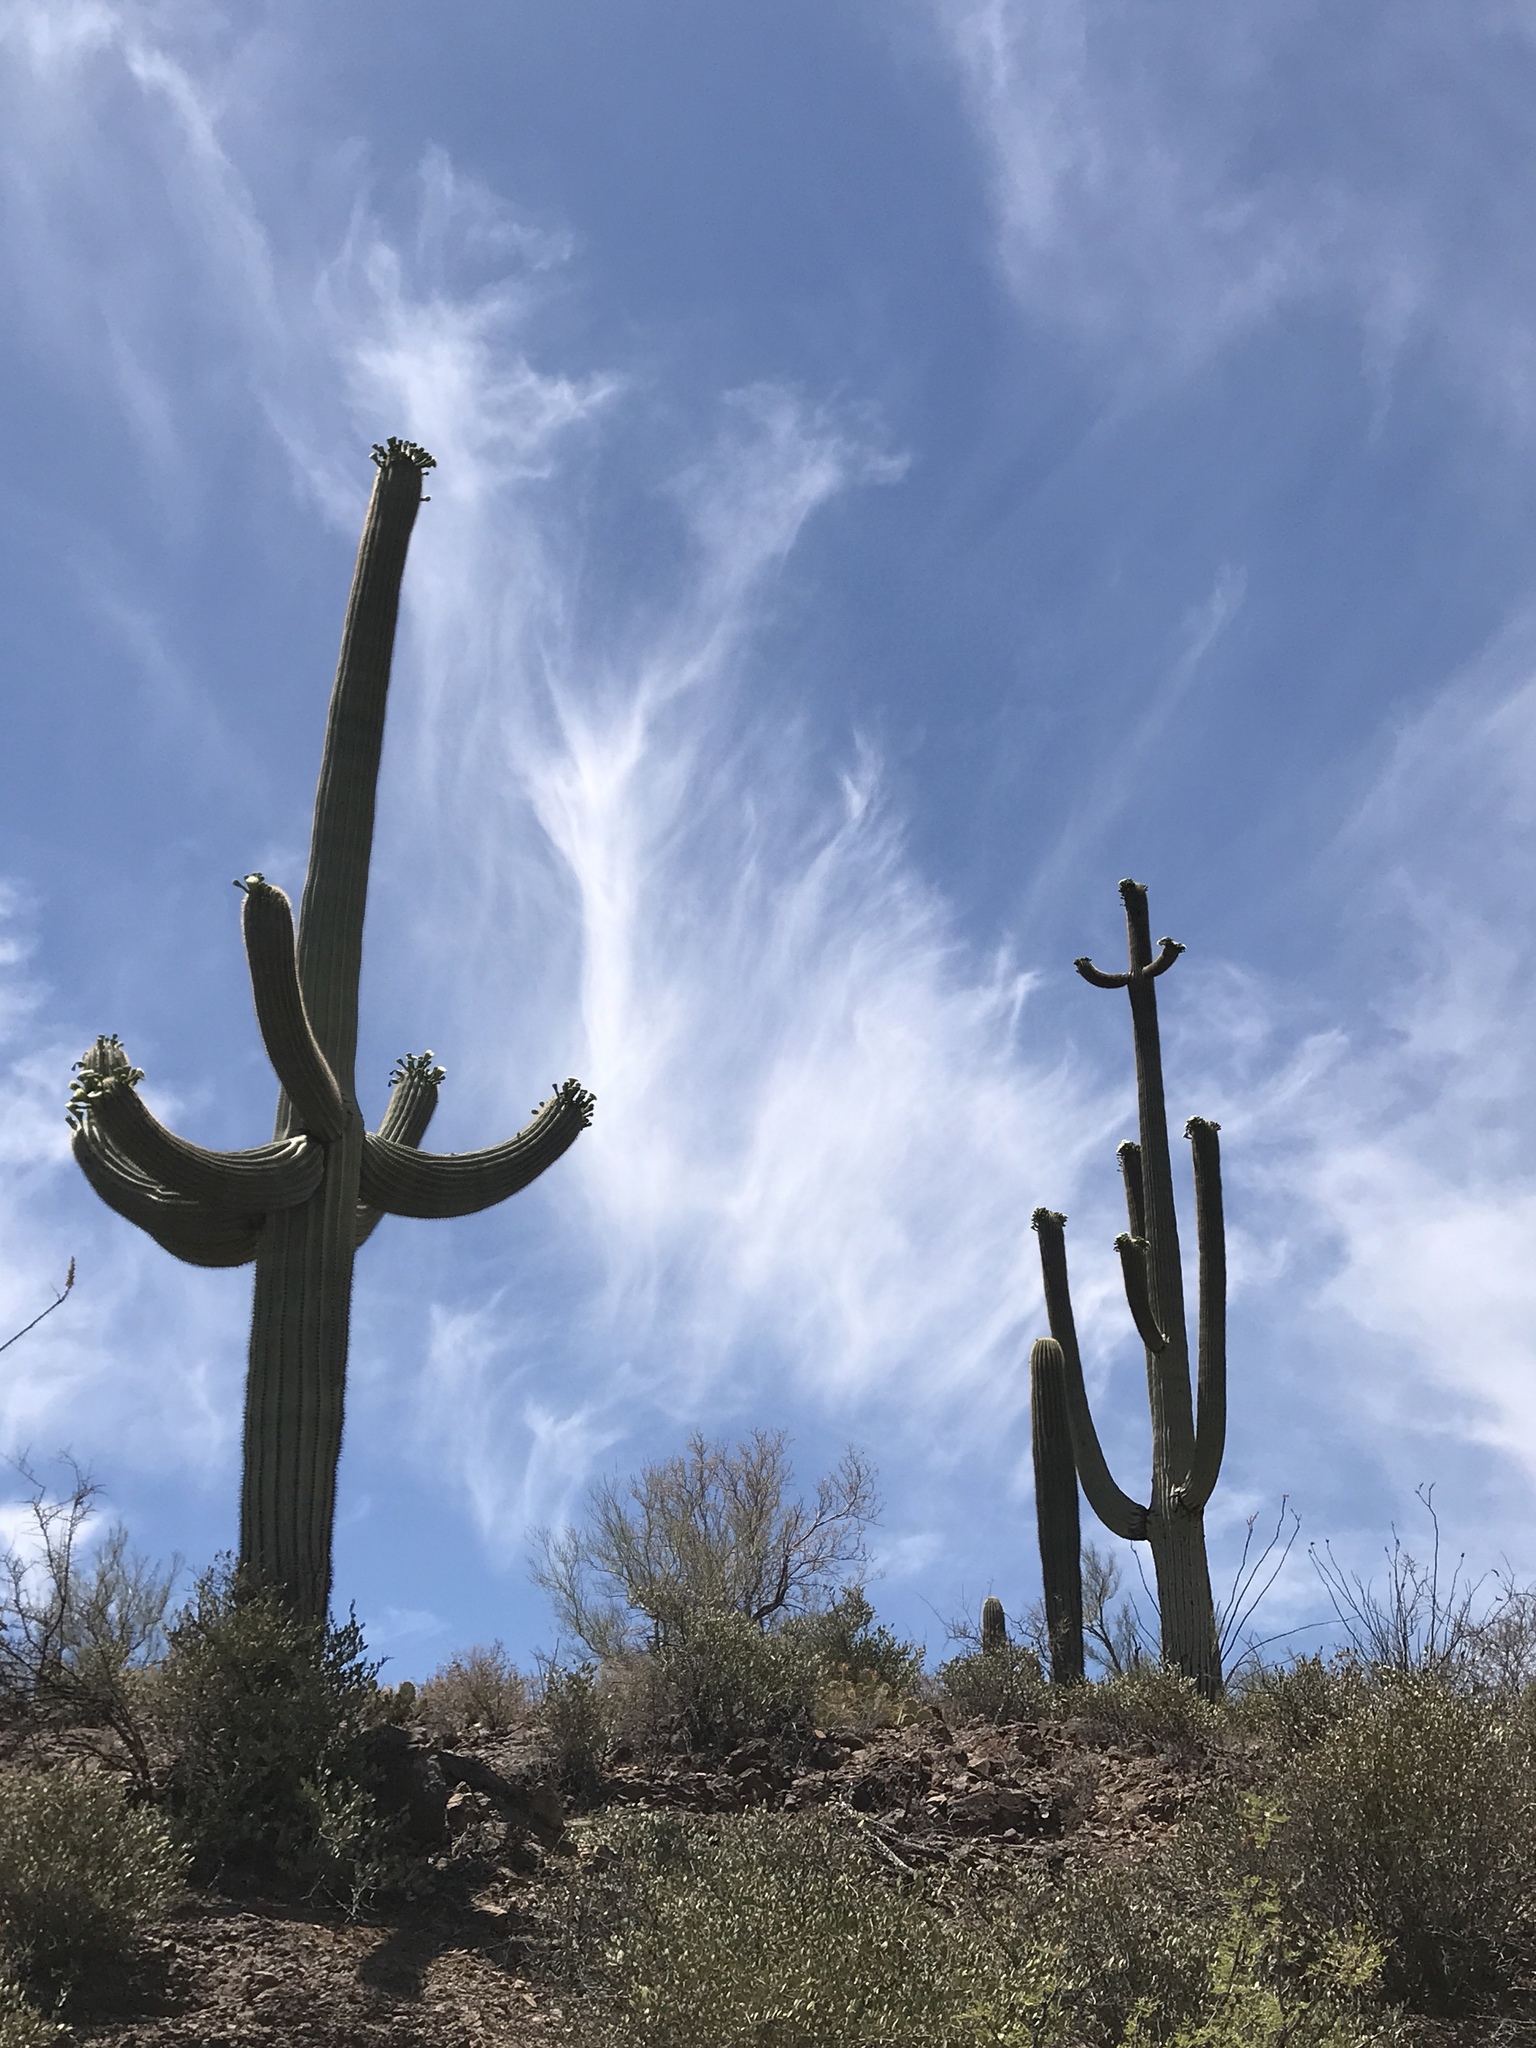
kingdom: Plantae
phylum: Tracheophyta
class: Magnoliopsida
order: Caryophyllales
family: Cactaceae
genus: Carnegiea
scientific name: Carnegiea gigantea
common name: Saguaro
